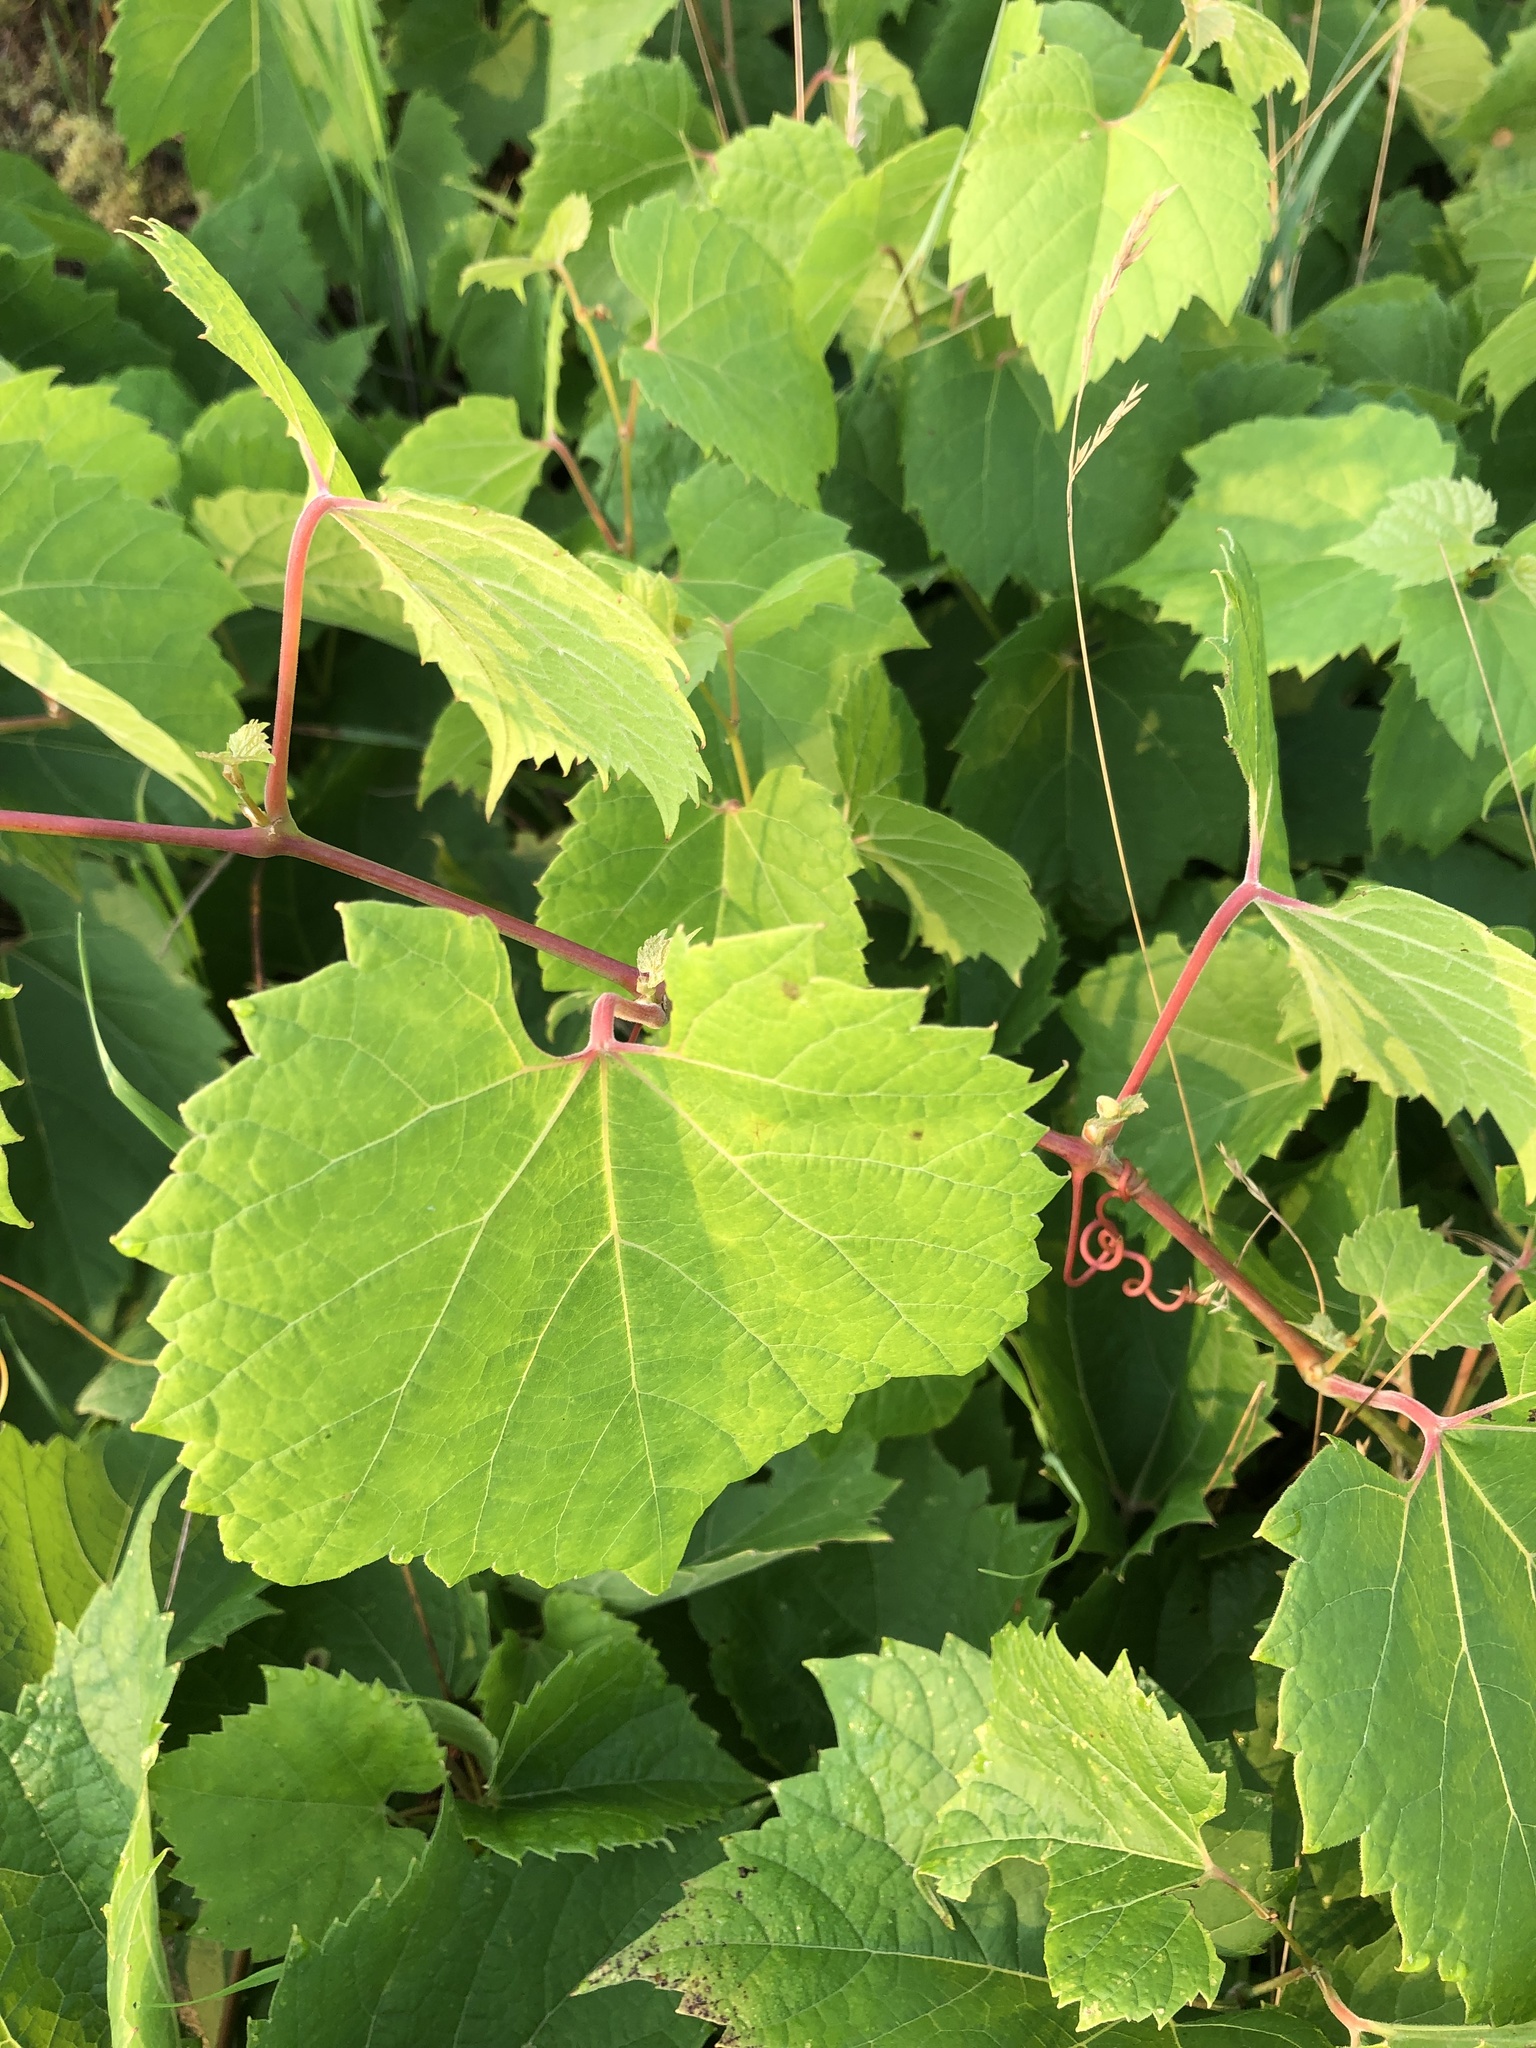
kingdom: Plantae
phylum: Tracheophyta
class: Magnoliopsida
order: Vitales
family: Vitaceae
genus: Vitis
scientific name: Vitis riparia
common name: Frost grape
